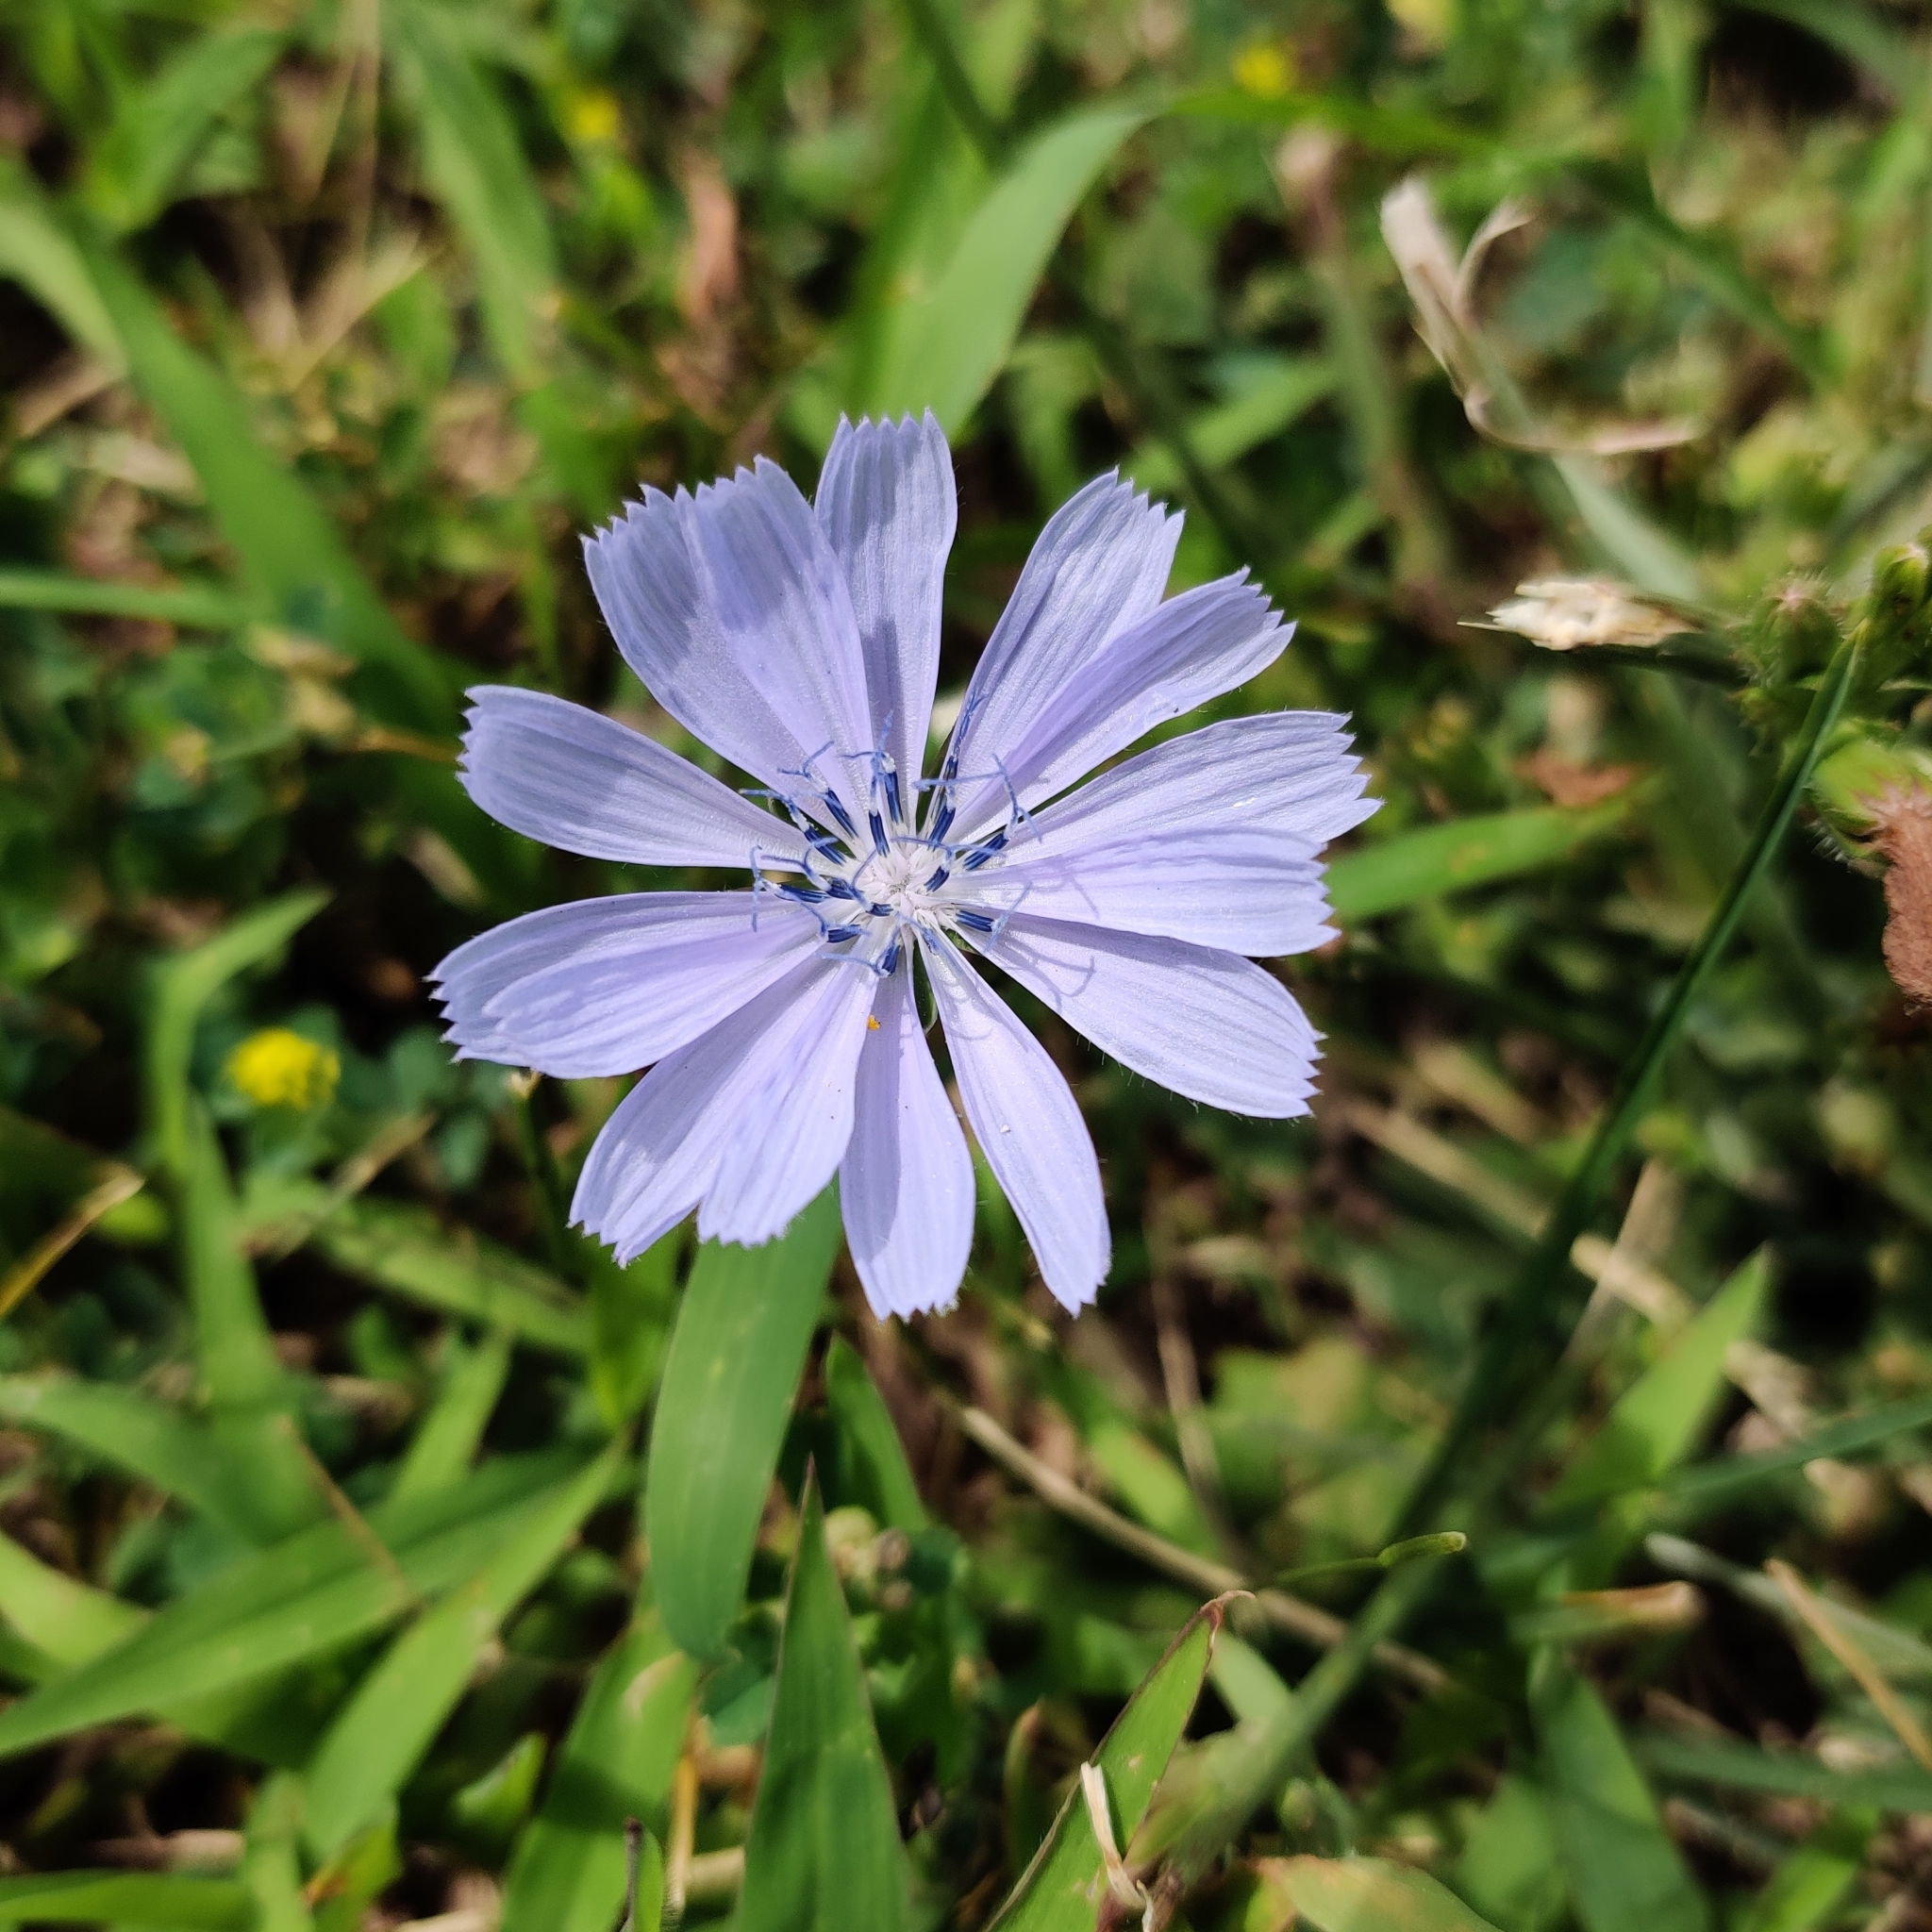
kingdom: Plantae
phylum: Tracheophyta
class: Magnoliopsida
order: Asterales
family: Asteraceae
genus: Cichorium
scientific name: Cichorium intybus
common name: Chicory
